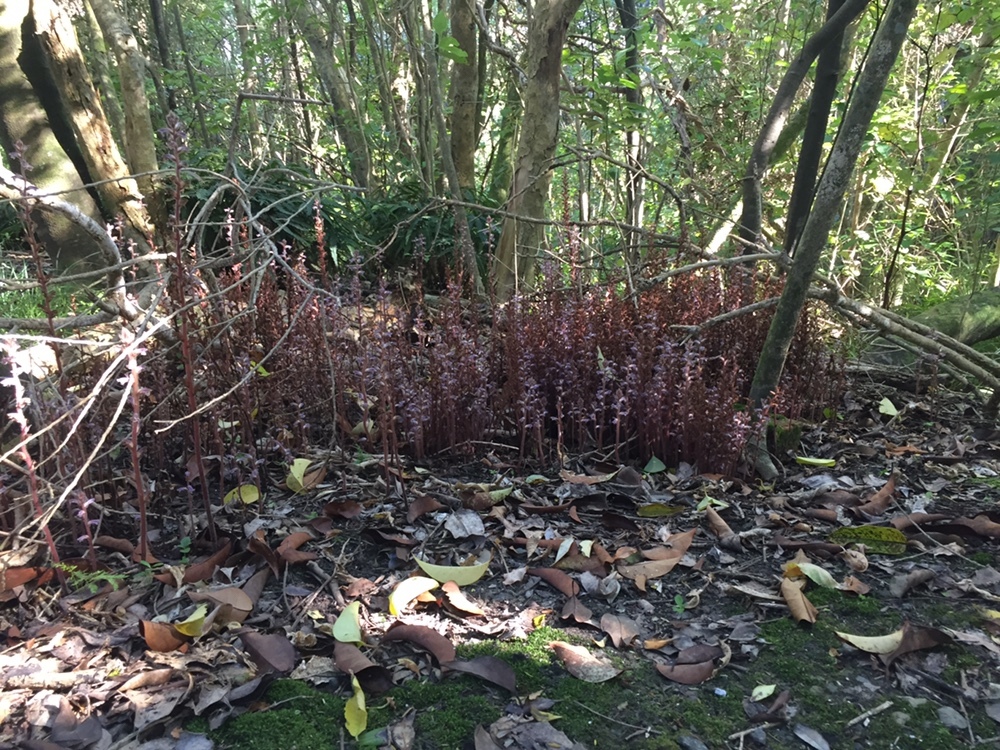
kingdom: Plantae
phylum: Tracheophyta
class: Magnoliopsida
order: Lamiales
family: Orobanchaceae
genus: Orobanche
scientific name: Orobanche minor
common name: Common broomrape
